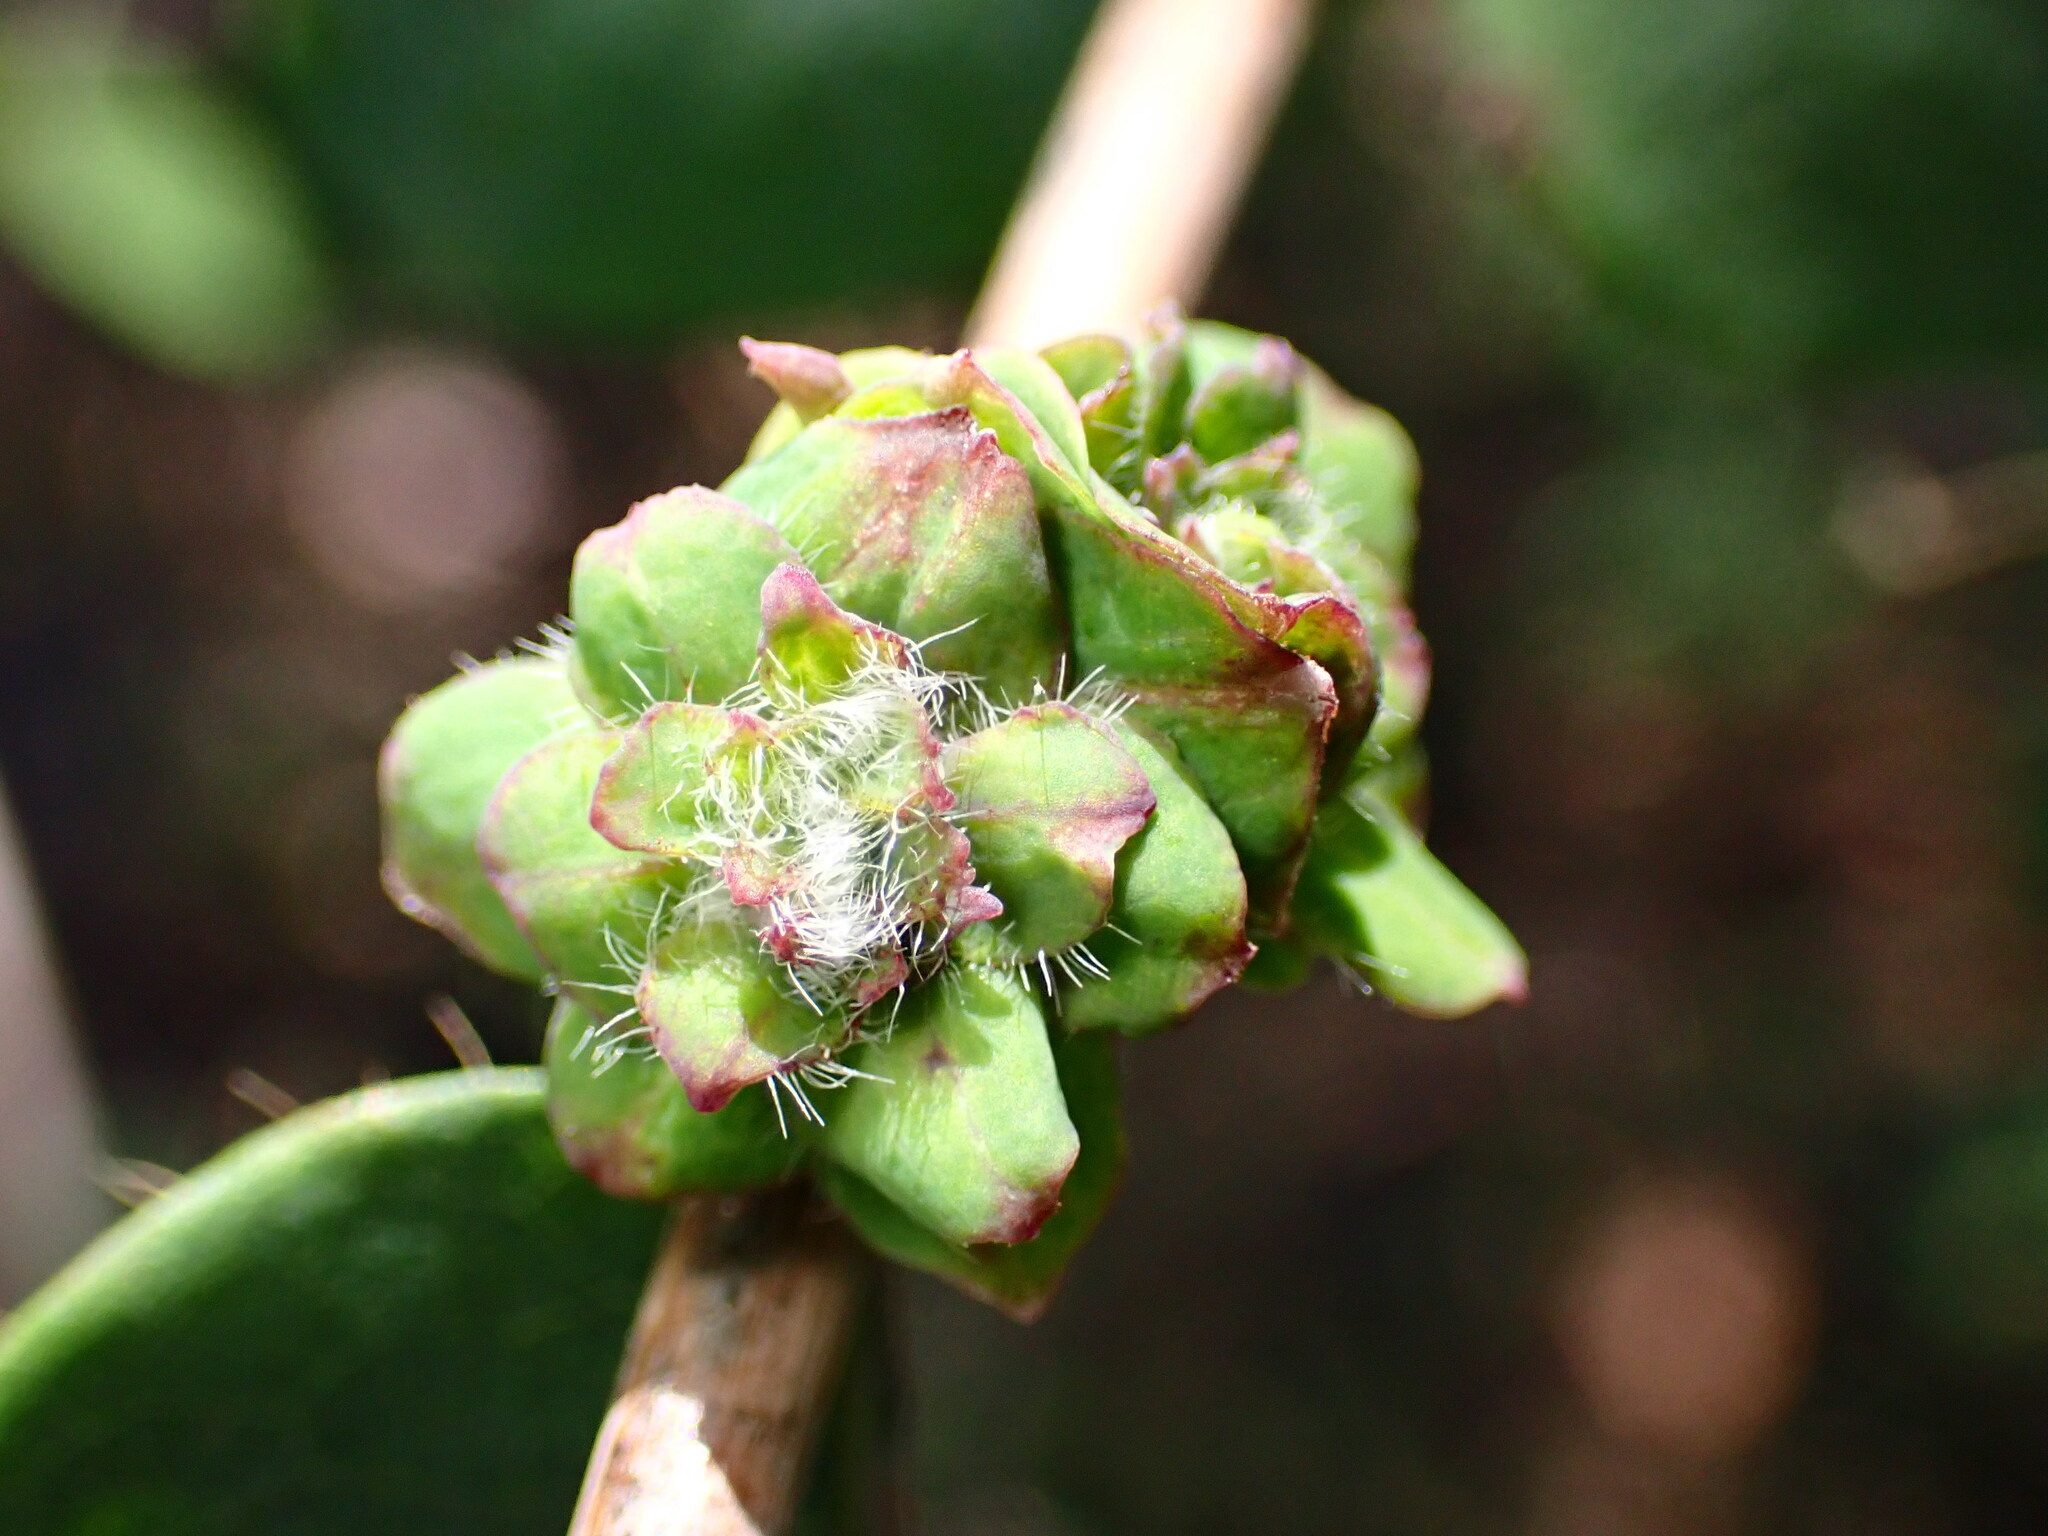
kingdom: Animalia
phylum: Arthropoda
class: Insecta
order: Diptera
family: Cecidomyiidae
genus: Lonicerae
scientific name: Lonicerae russoi
